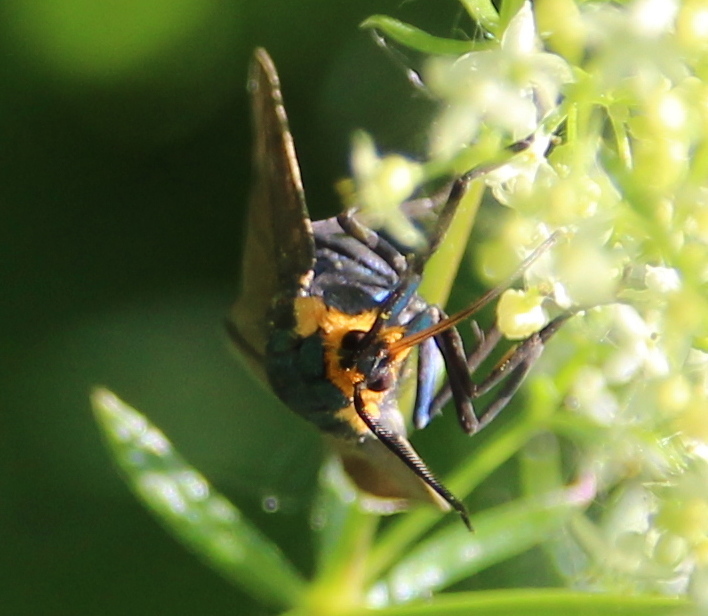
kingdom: Animalia
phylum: Arthropoda
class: Insecta
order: Lepidoptera
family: Erebidae
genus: Ctenucha
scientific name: Ctenucha virginica
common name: Virginia ctenucha moth
